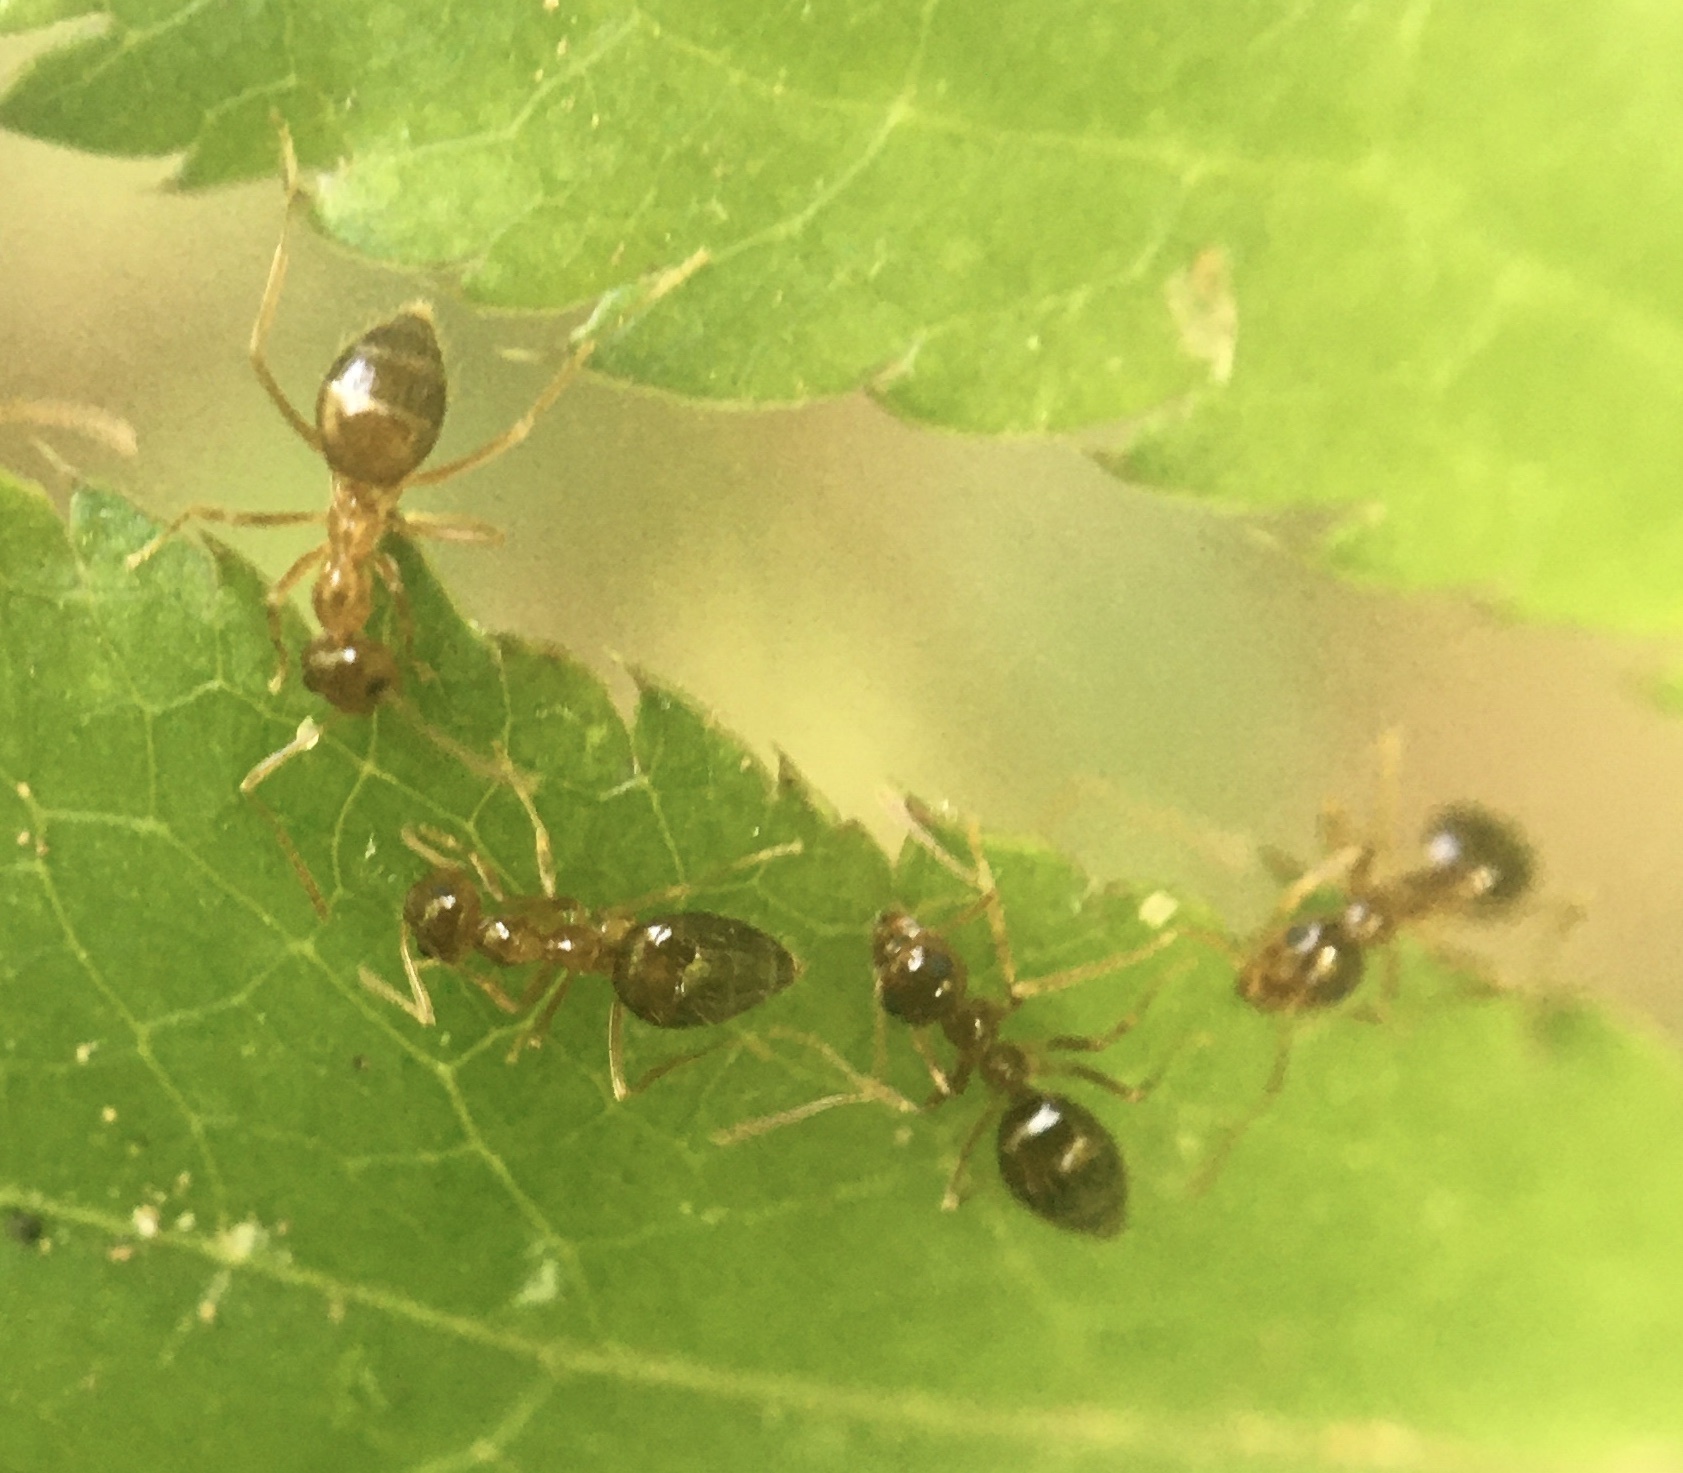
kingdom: Animalia
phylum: Arthropoda
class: Insecta
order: Hymenoptera
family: Formicidae
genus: Prenolepis
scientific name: Prenolepis imparis
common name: Small honey ant
